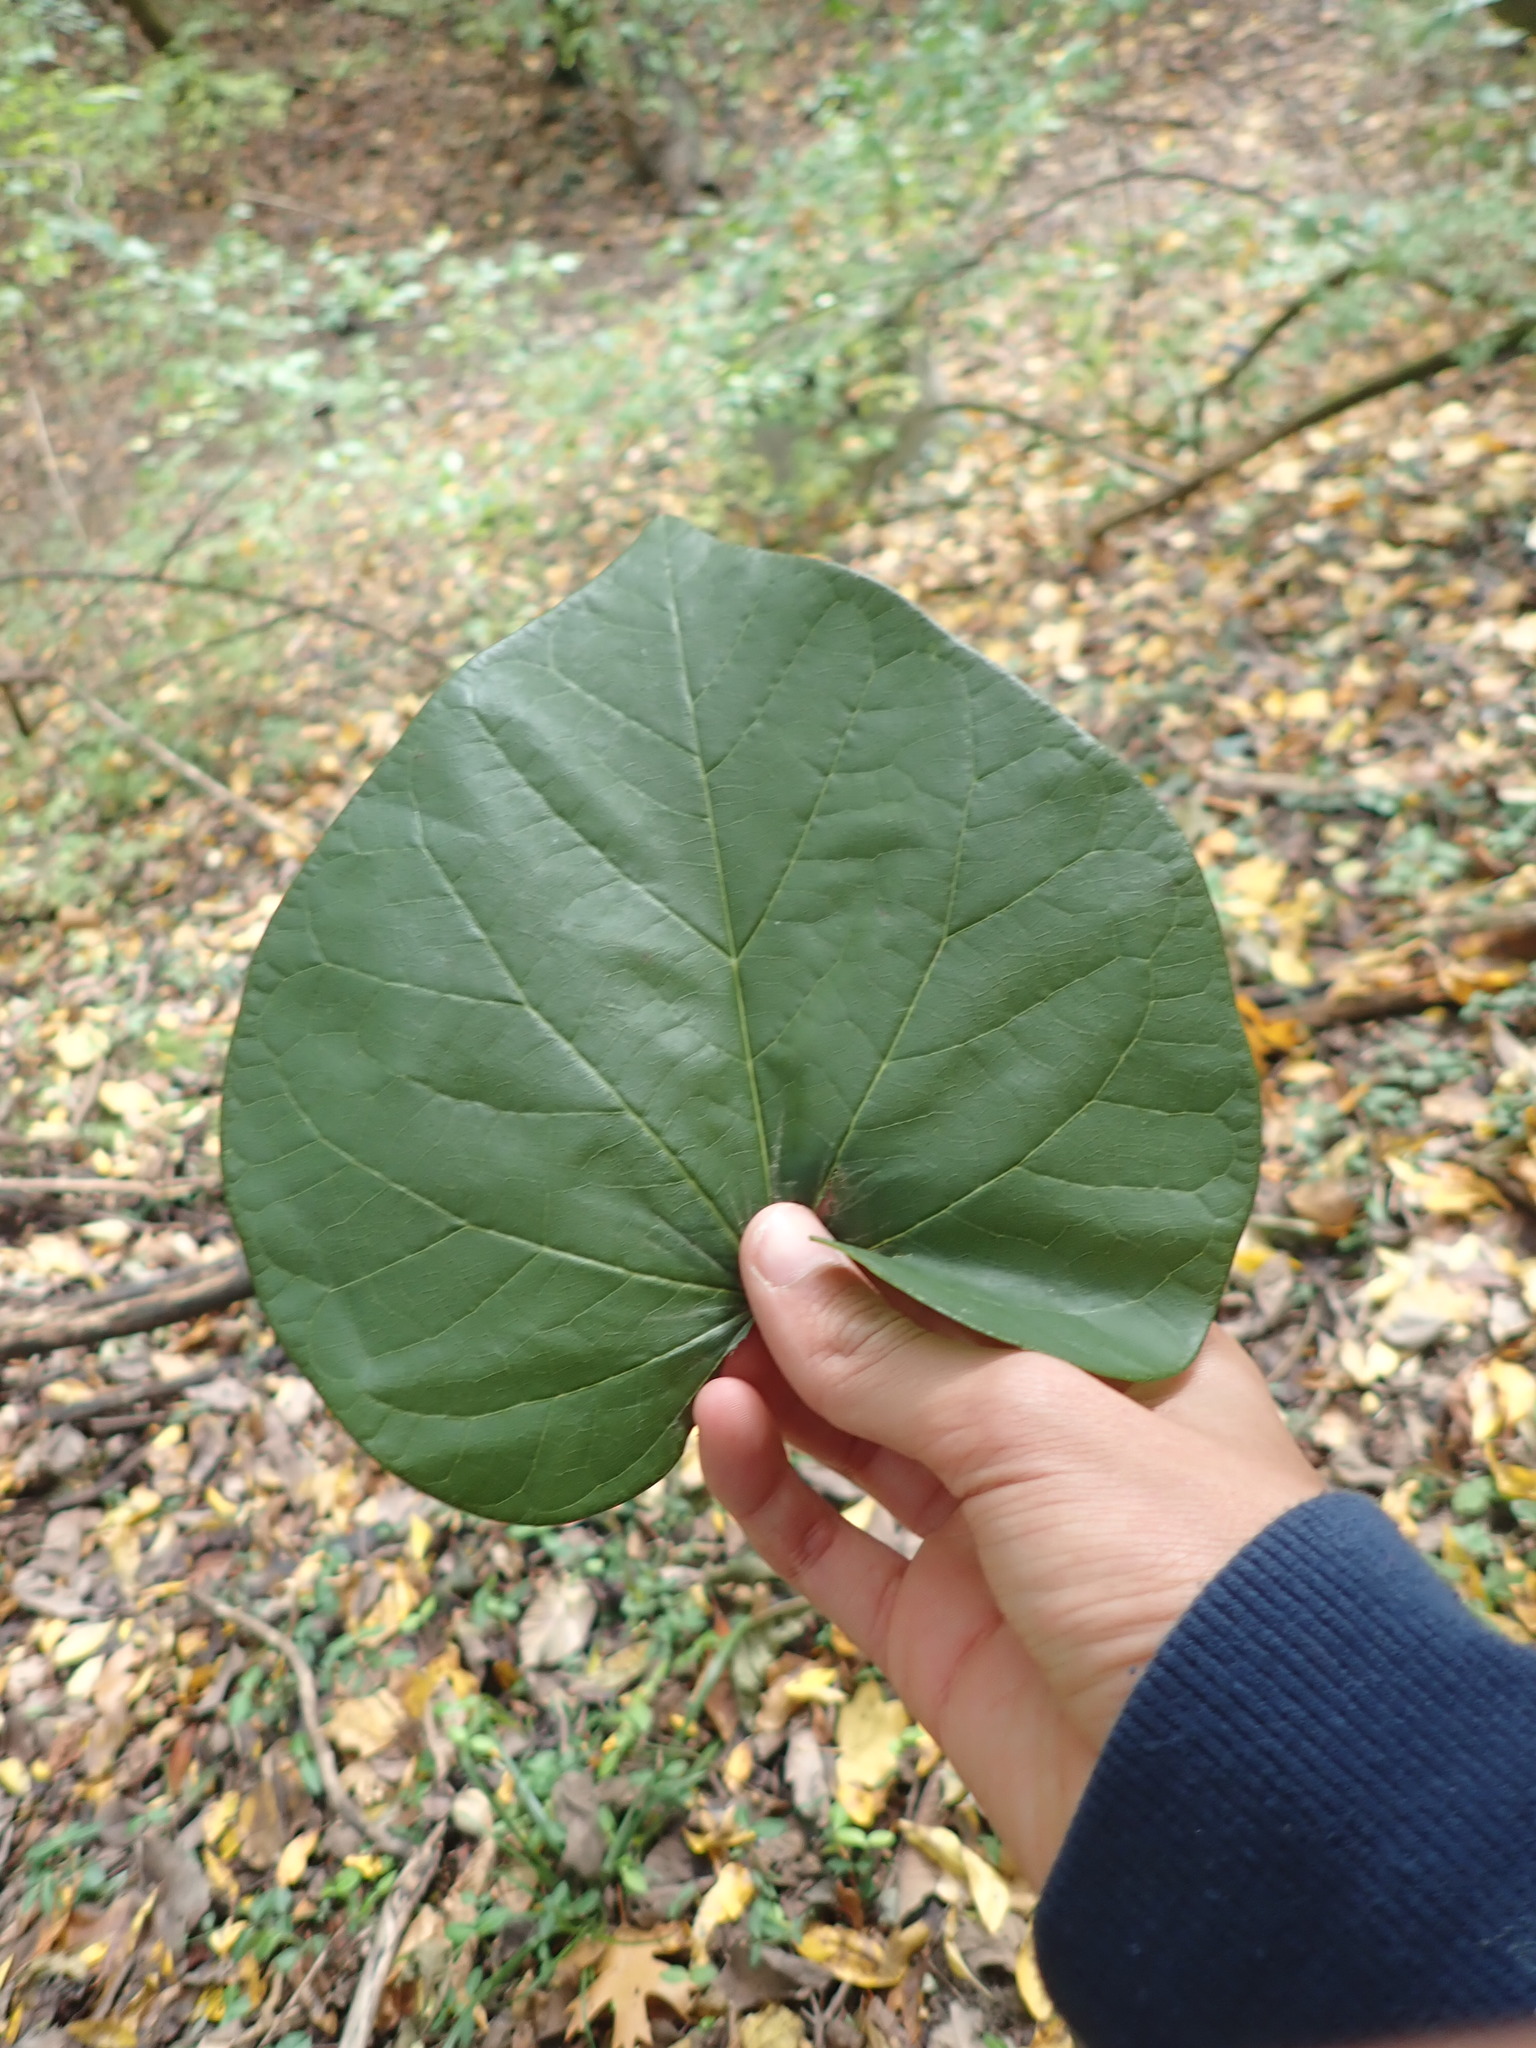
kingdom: Plantae
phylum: Tracheophyta
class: Magnoliopsida
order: Fabales
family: Fabaceae
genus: Cercis
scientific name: Cercis canadensis
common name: Eastern redbud
